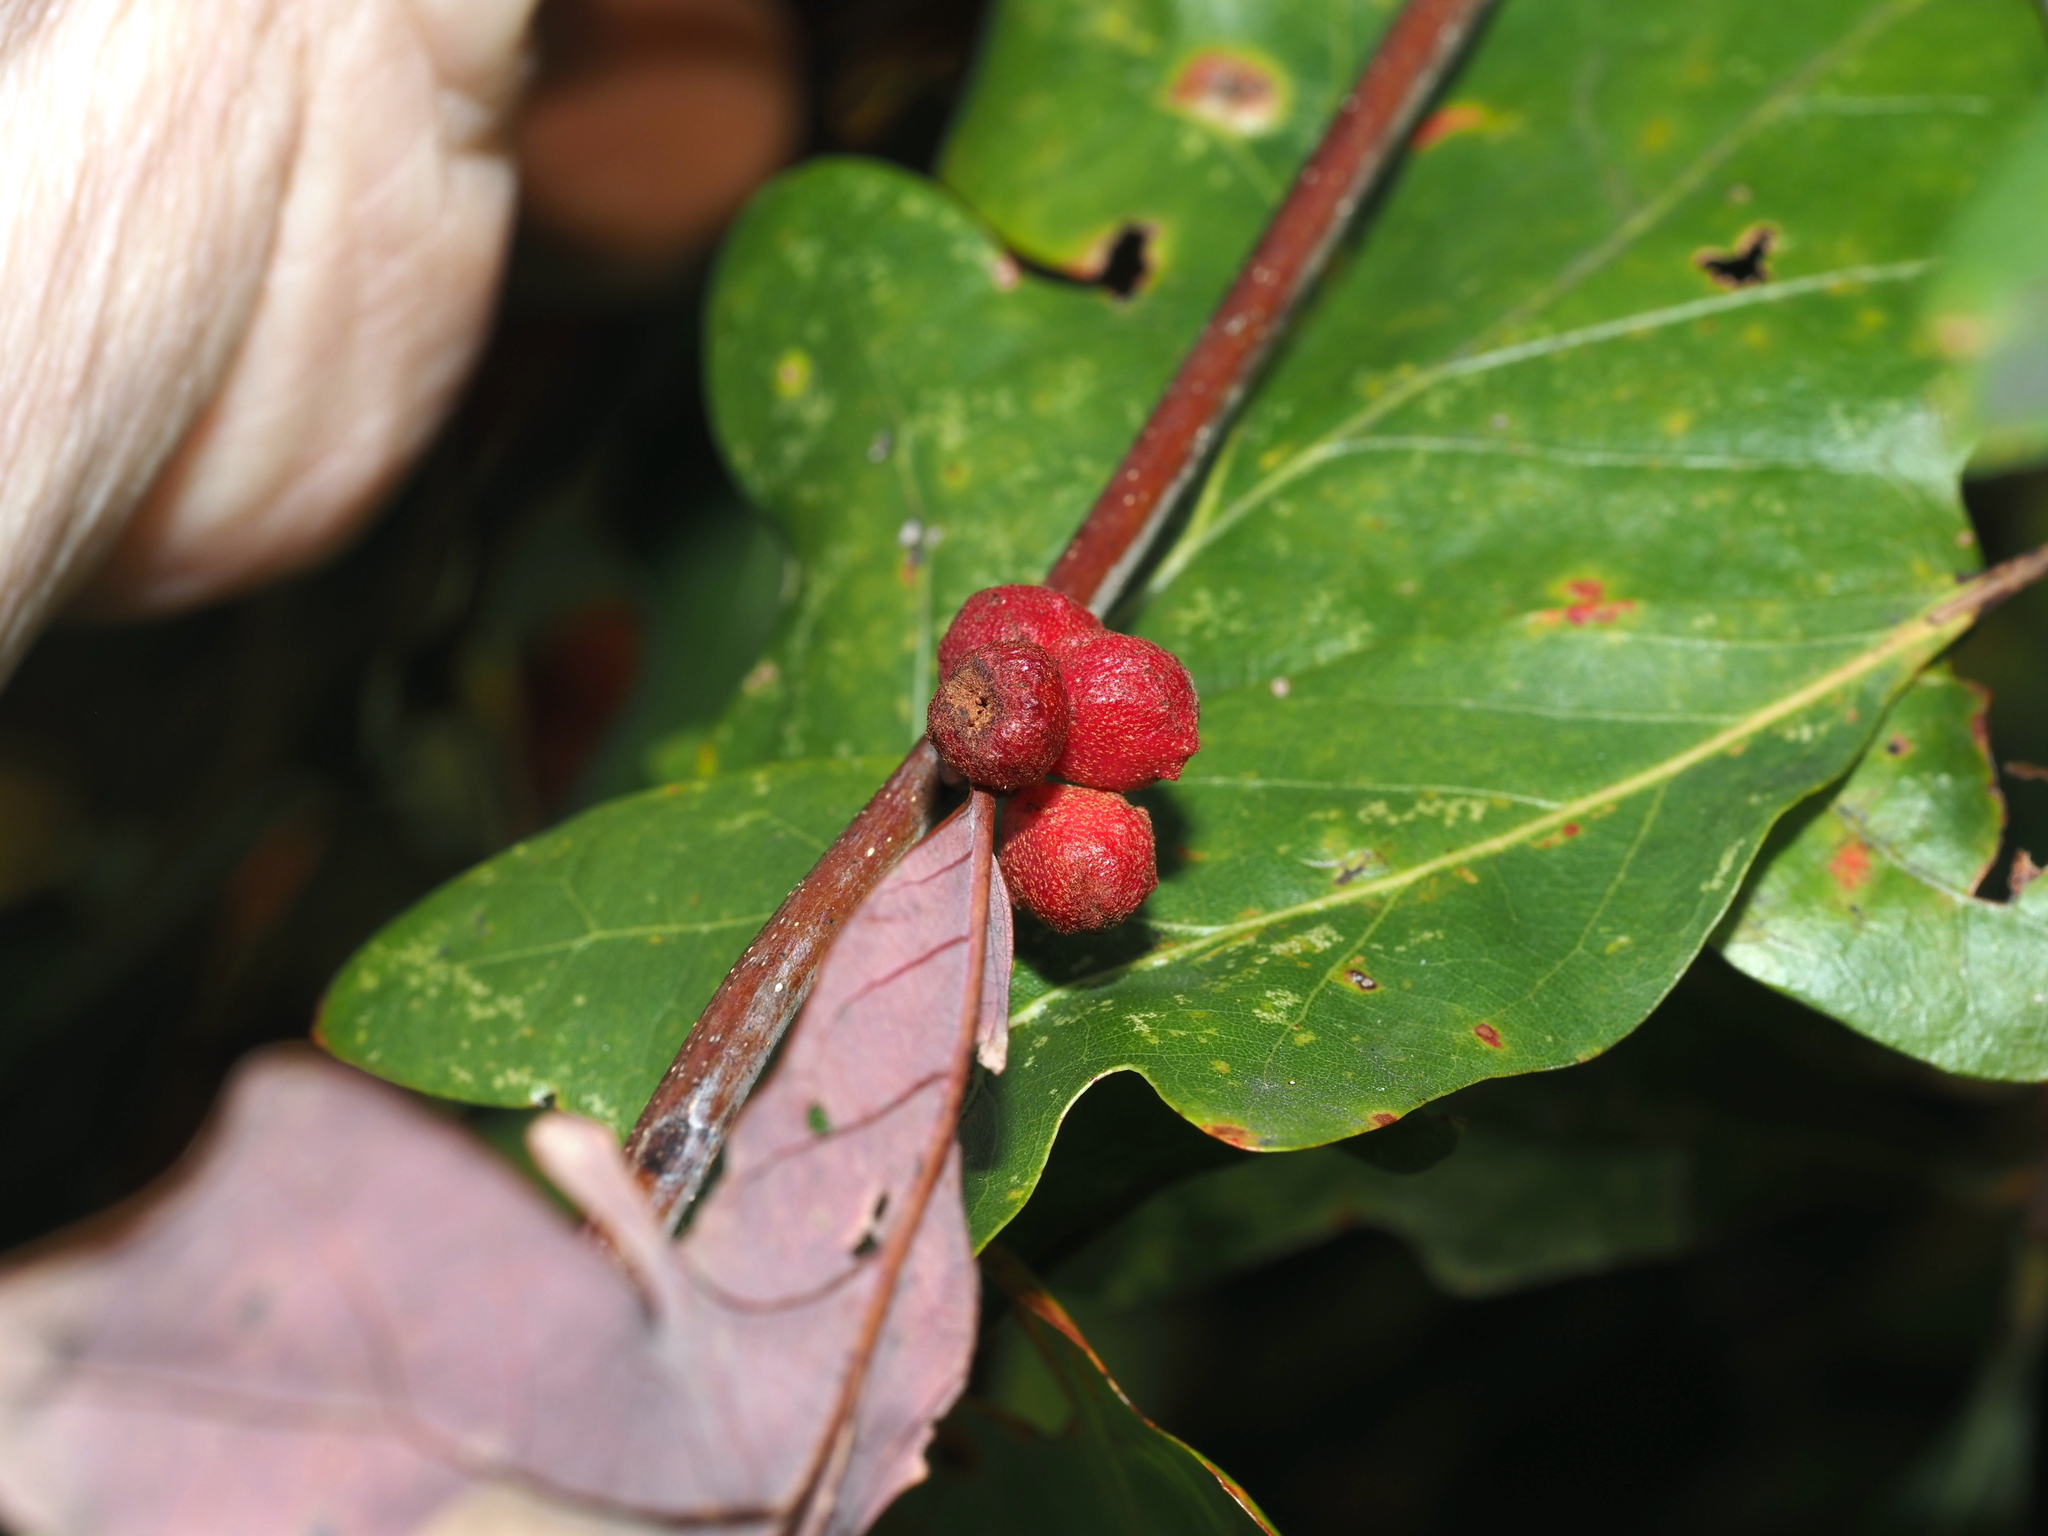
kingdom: Animalia
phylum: Arthropoda
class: Insecta
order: Hymenoptera
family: Cynipidae
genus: Andricus
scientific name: Andricus
